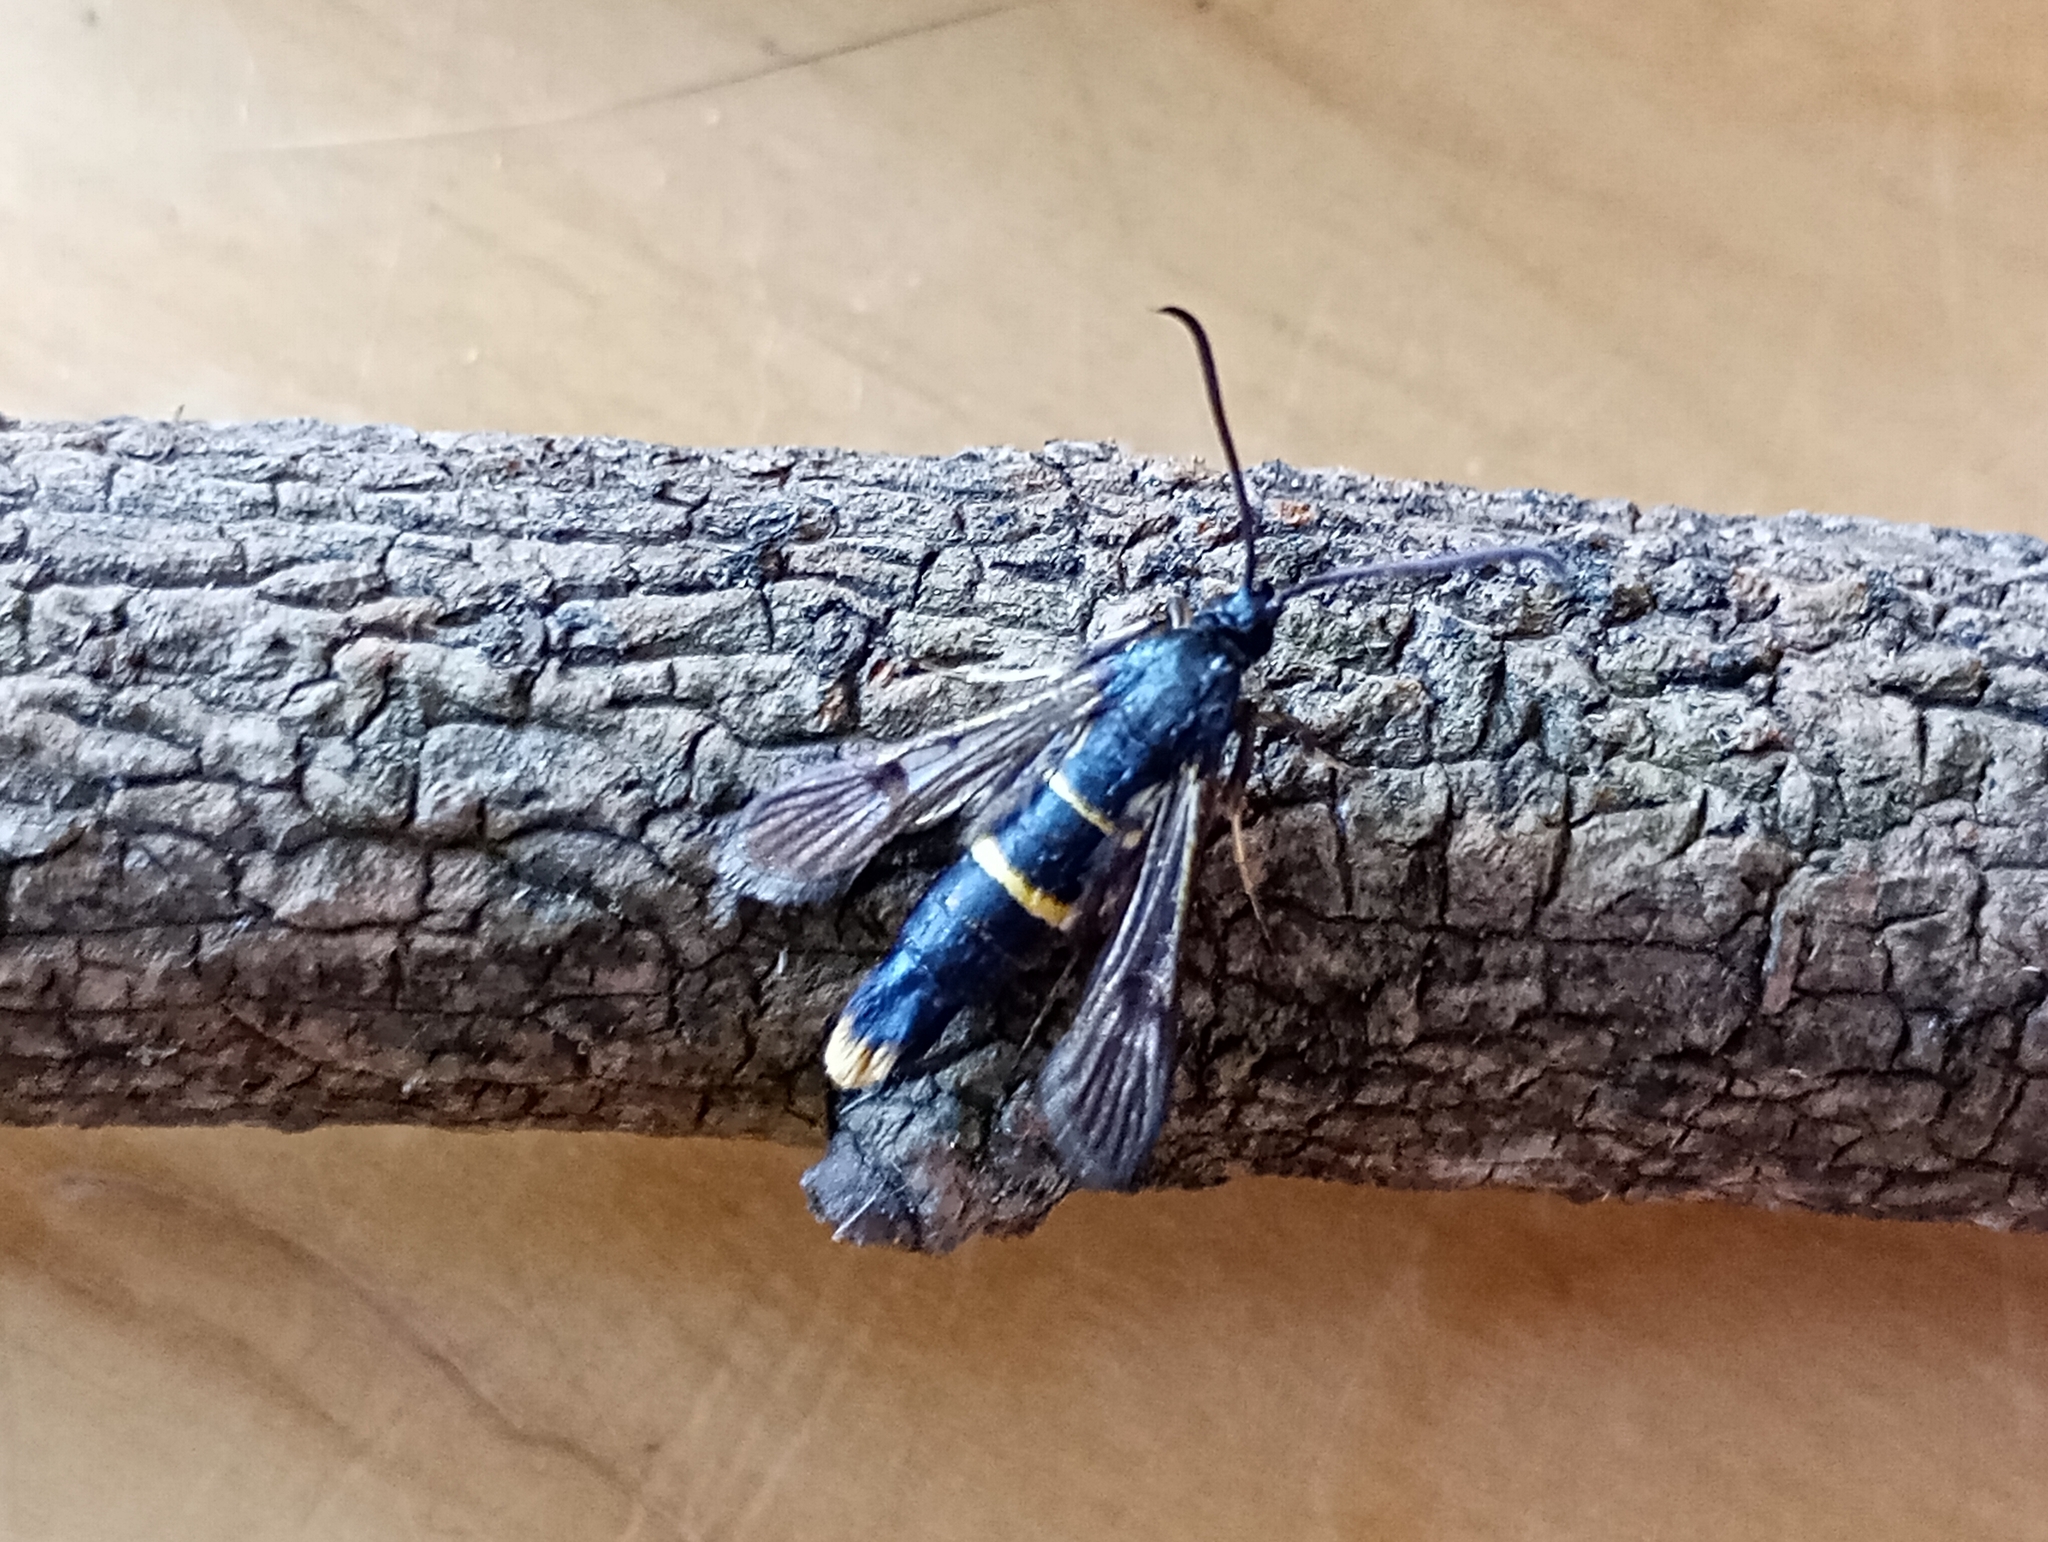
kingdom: Animalia
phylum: Arthropoda
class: Insecta
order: Lepidoptera
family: Sesiidae
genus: Synanthedon
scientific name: Synanthedon andrenaeformis
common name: Orange-tailed clearwing
